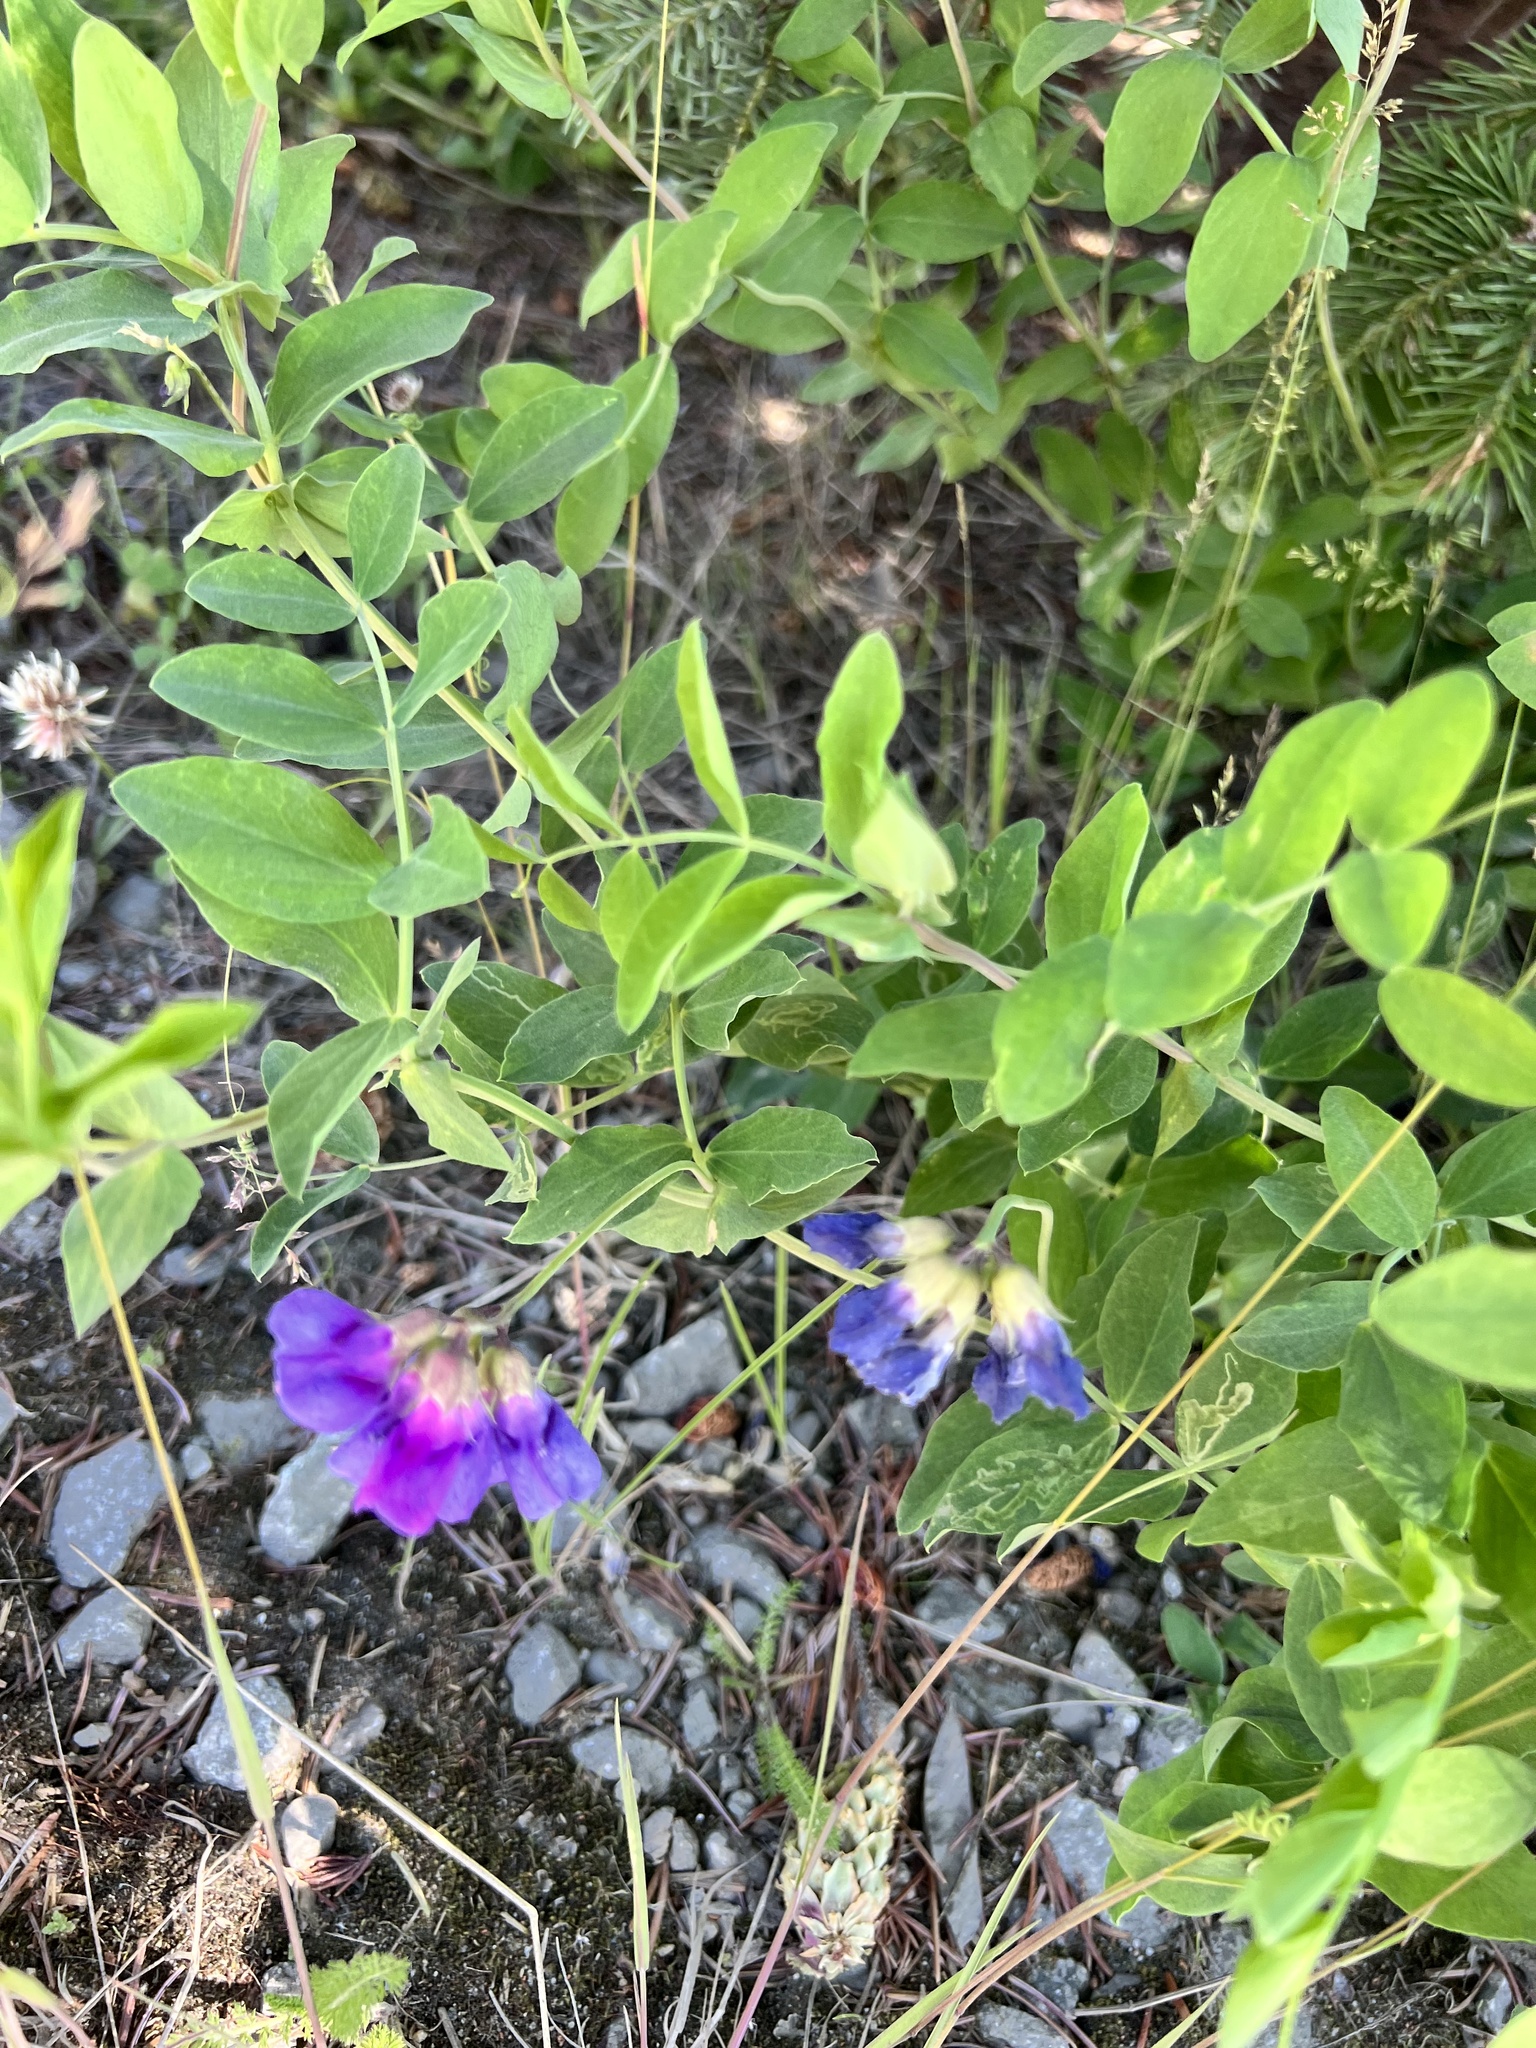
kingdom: Plantae
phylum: Tracheophyta
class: Magnoliopsida
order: Fabales
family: Fabaceae
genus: Lathyrus
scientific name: Lathyrus japonicus
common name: Sea pea
